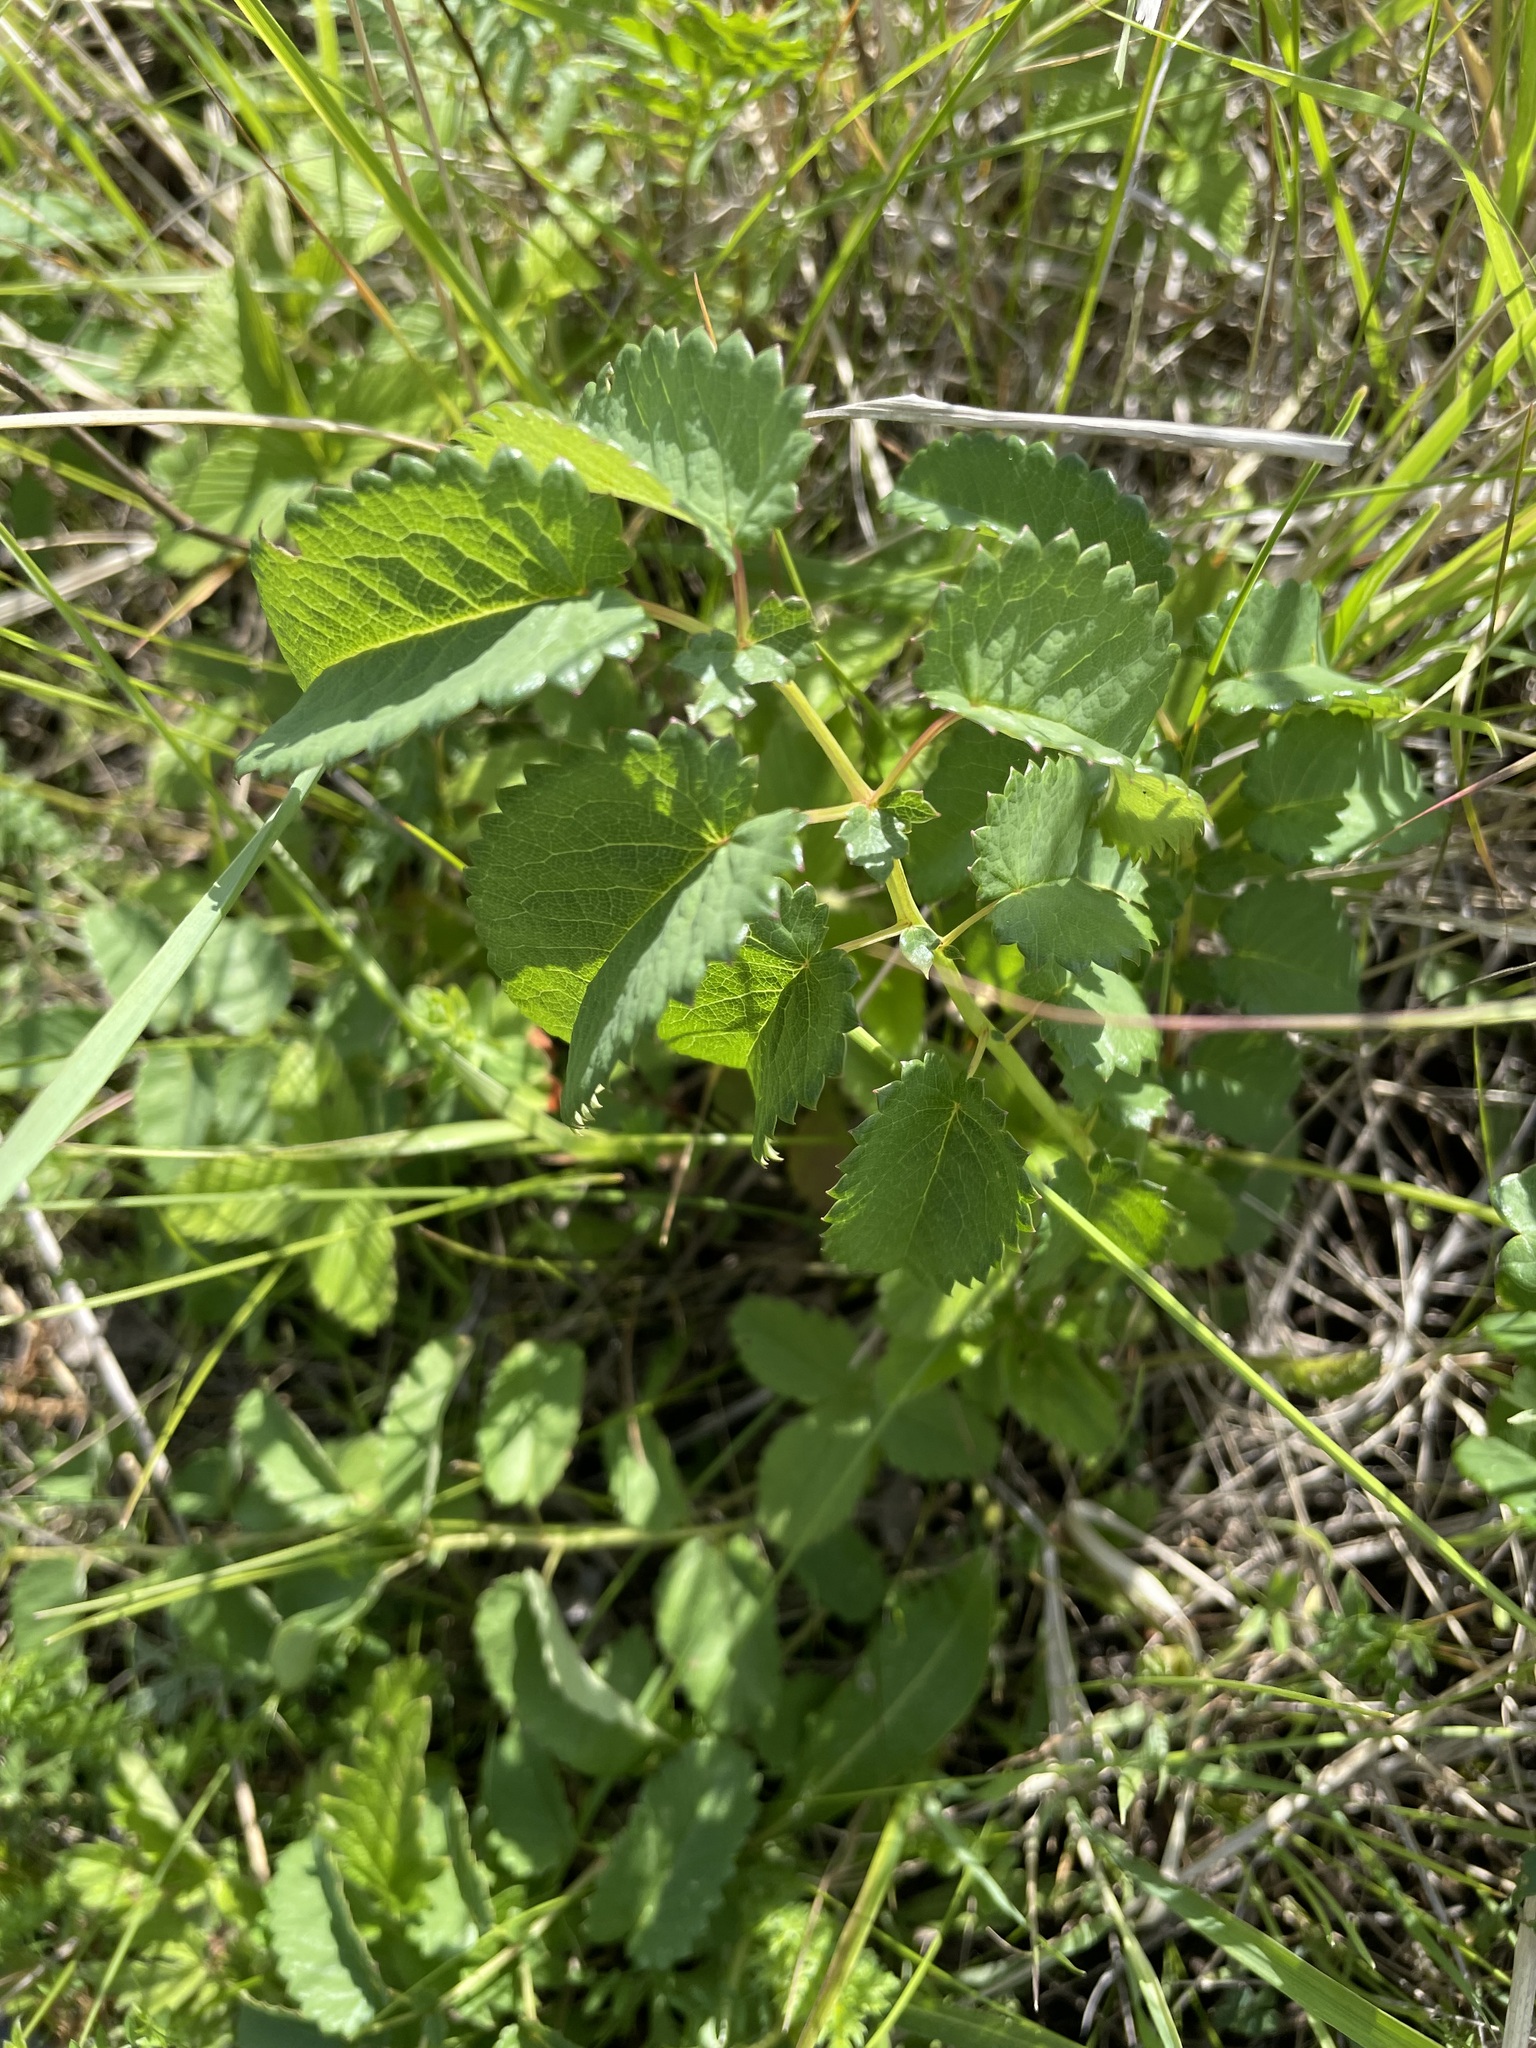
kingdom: Plantae
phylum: Tracheophyta
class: Magnoliopsida
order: Rosales
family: Rosaceae
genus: Sanguisorba
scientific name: Sanguisorba officinalis
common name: Great burnet
